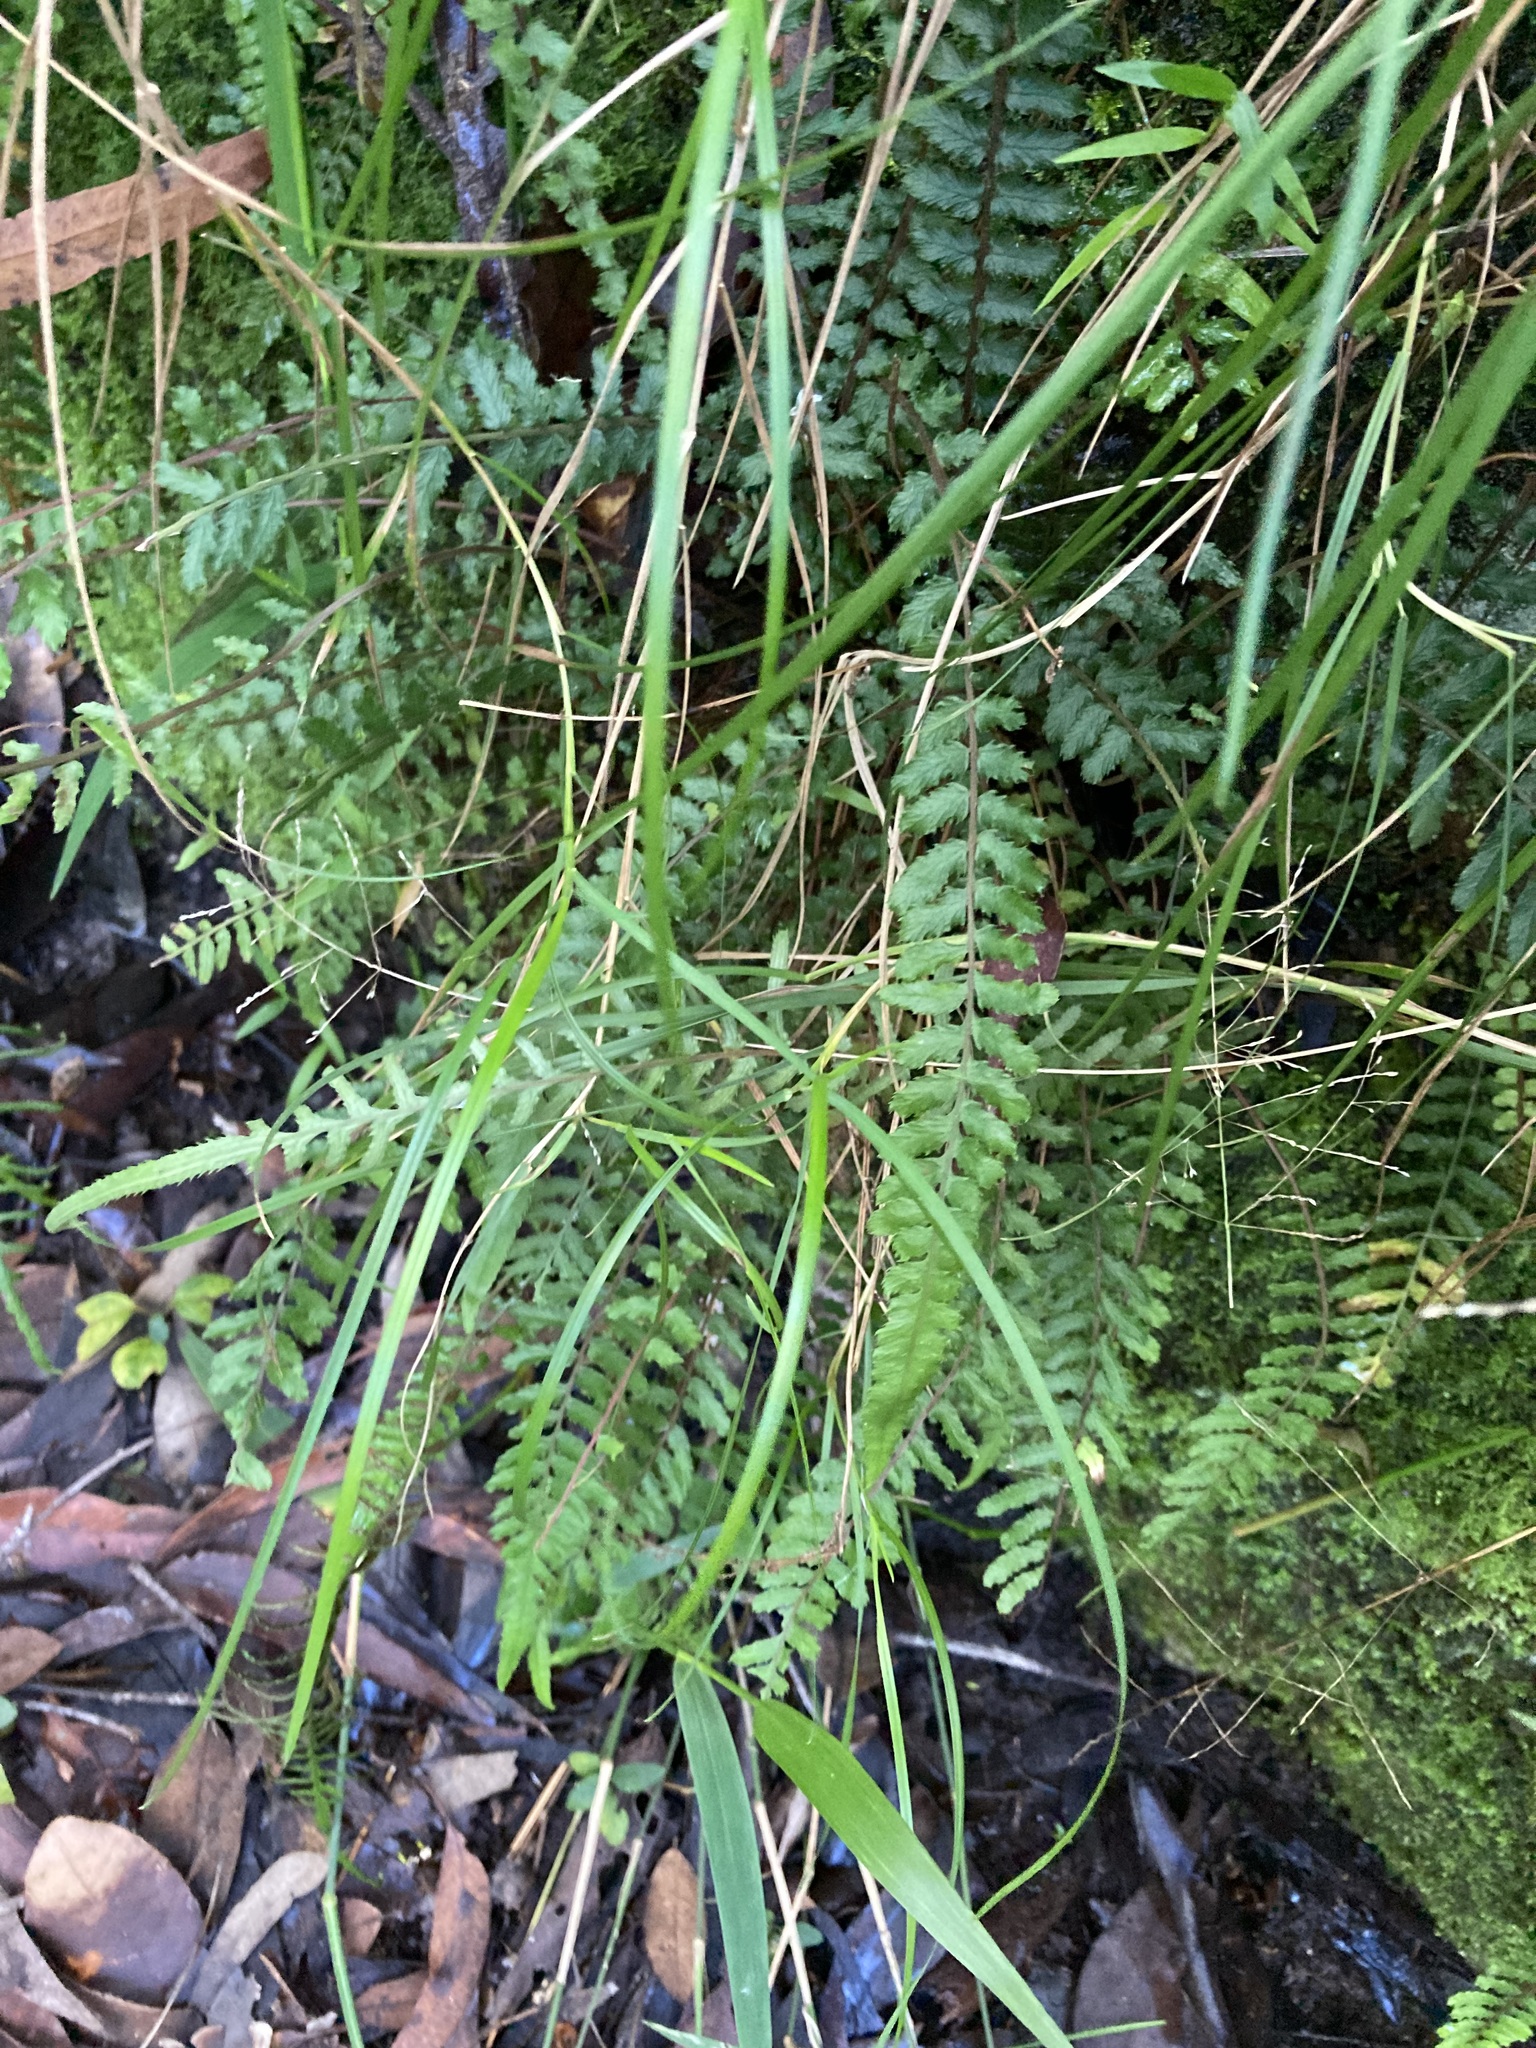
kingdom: Plantae
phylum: Tracheophyta
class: Polypodiopsida
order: Polypodiales
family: Blechnaceae
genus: Doodia
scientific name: Doodia caudata
